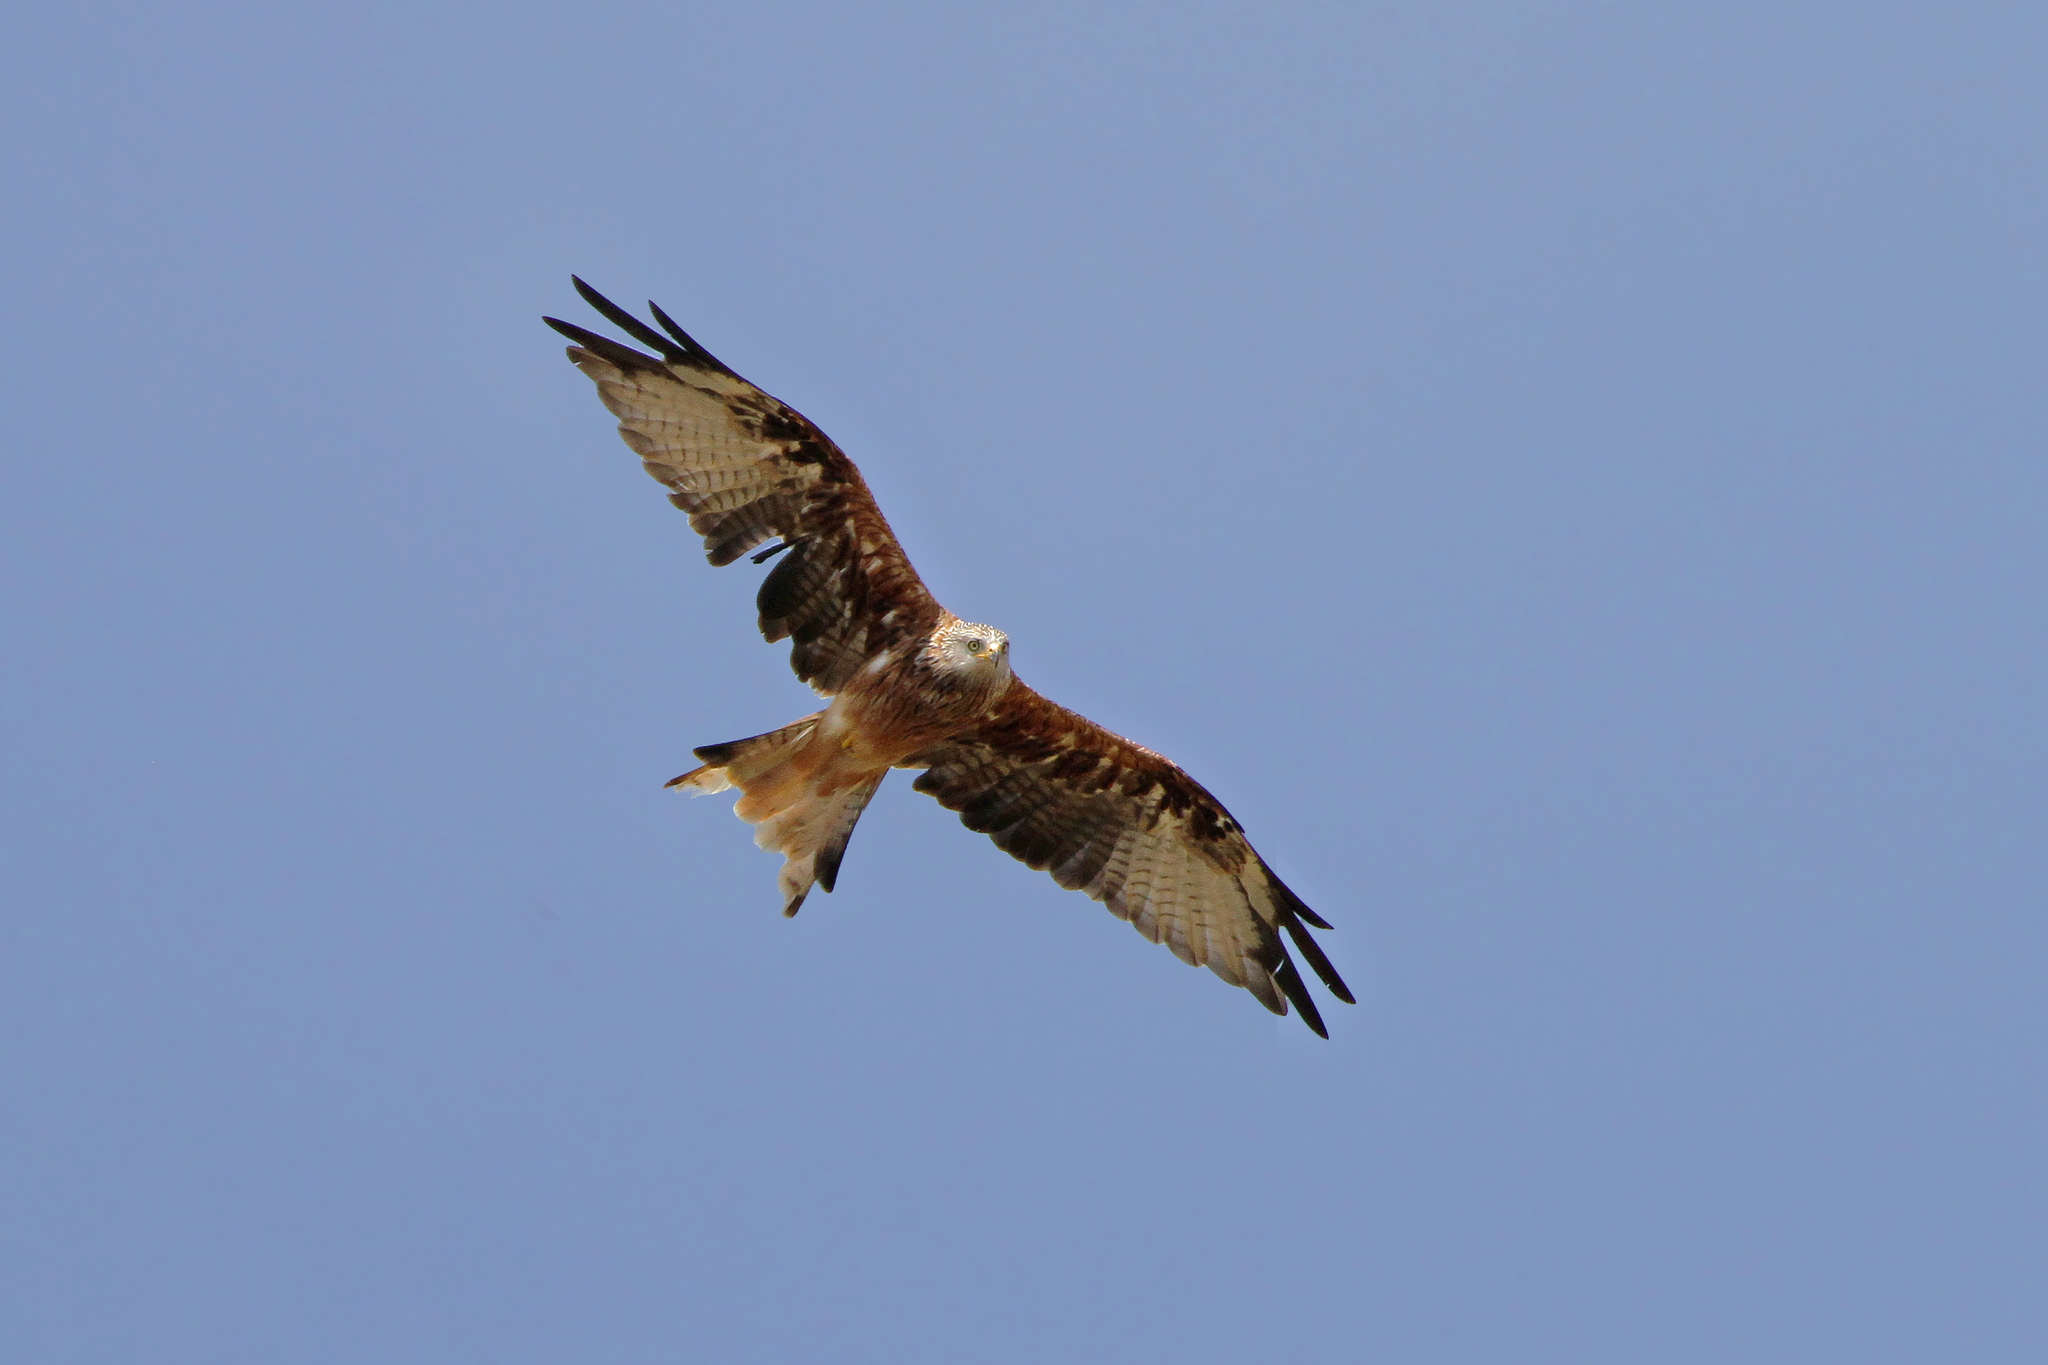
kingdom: Animalia
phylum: Chordata
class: Aves
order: Accipitriformes
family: Accipitridae
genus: Milvus
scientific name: Milvus milvus
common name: Red kite
